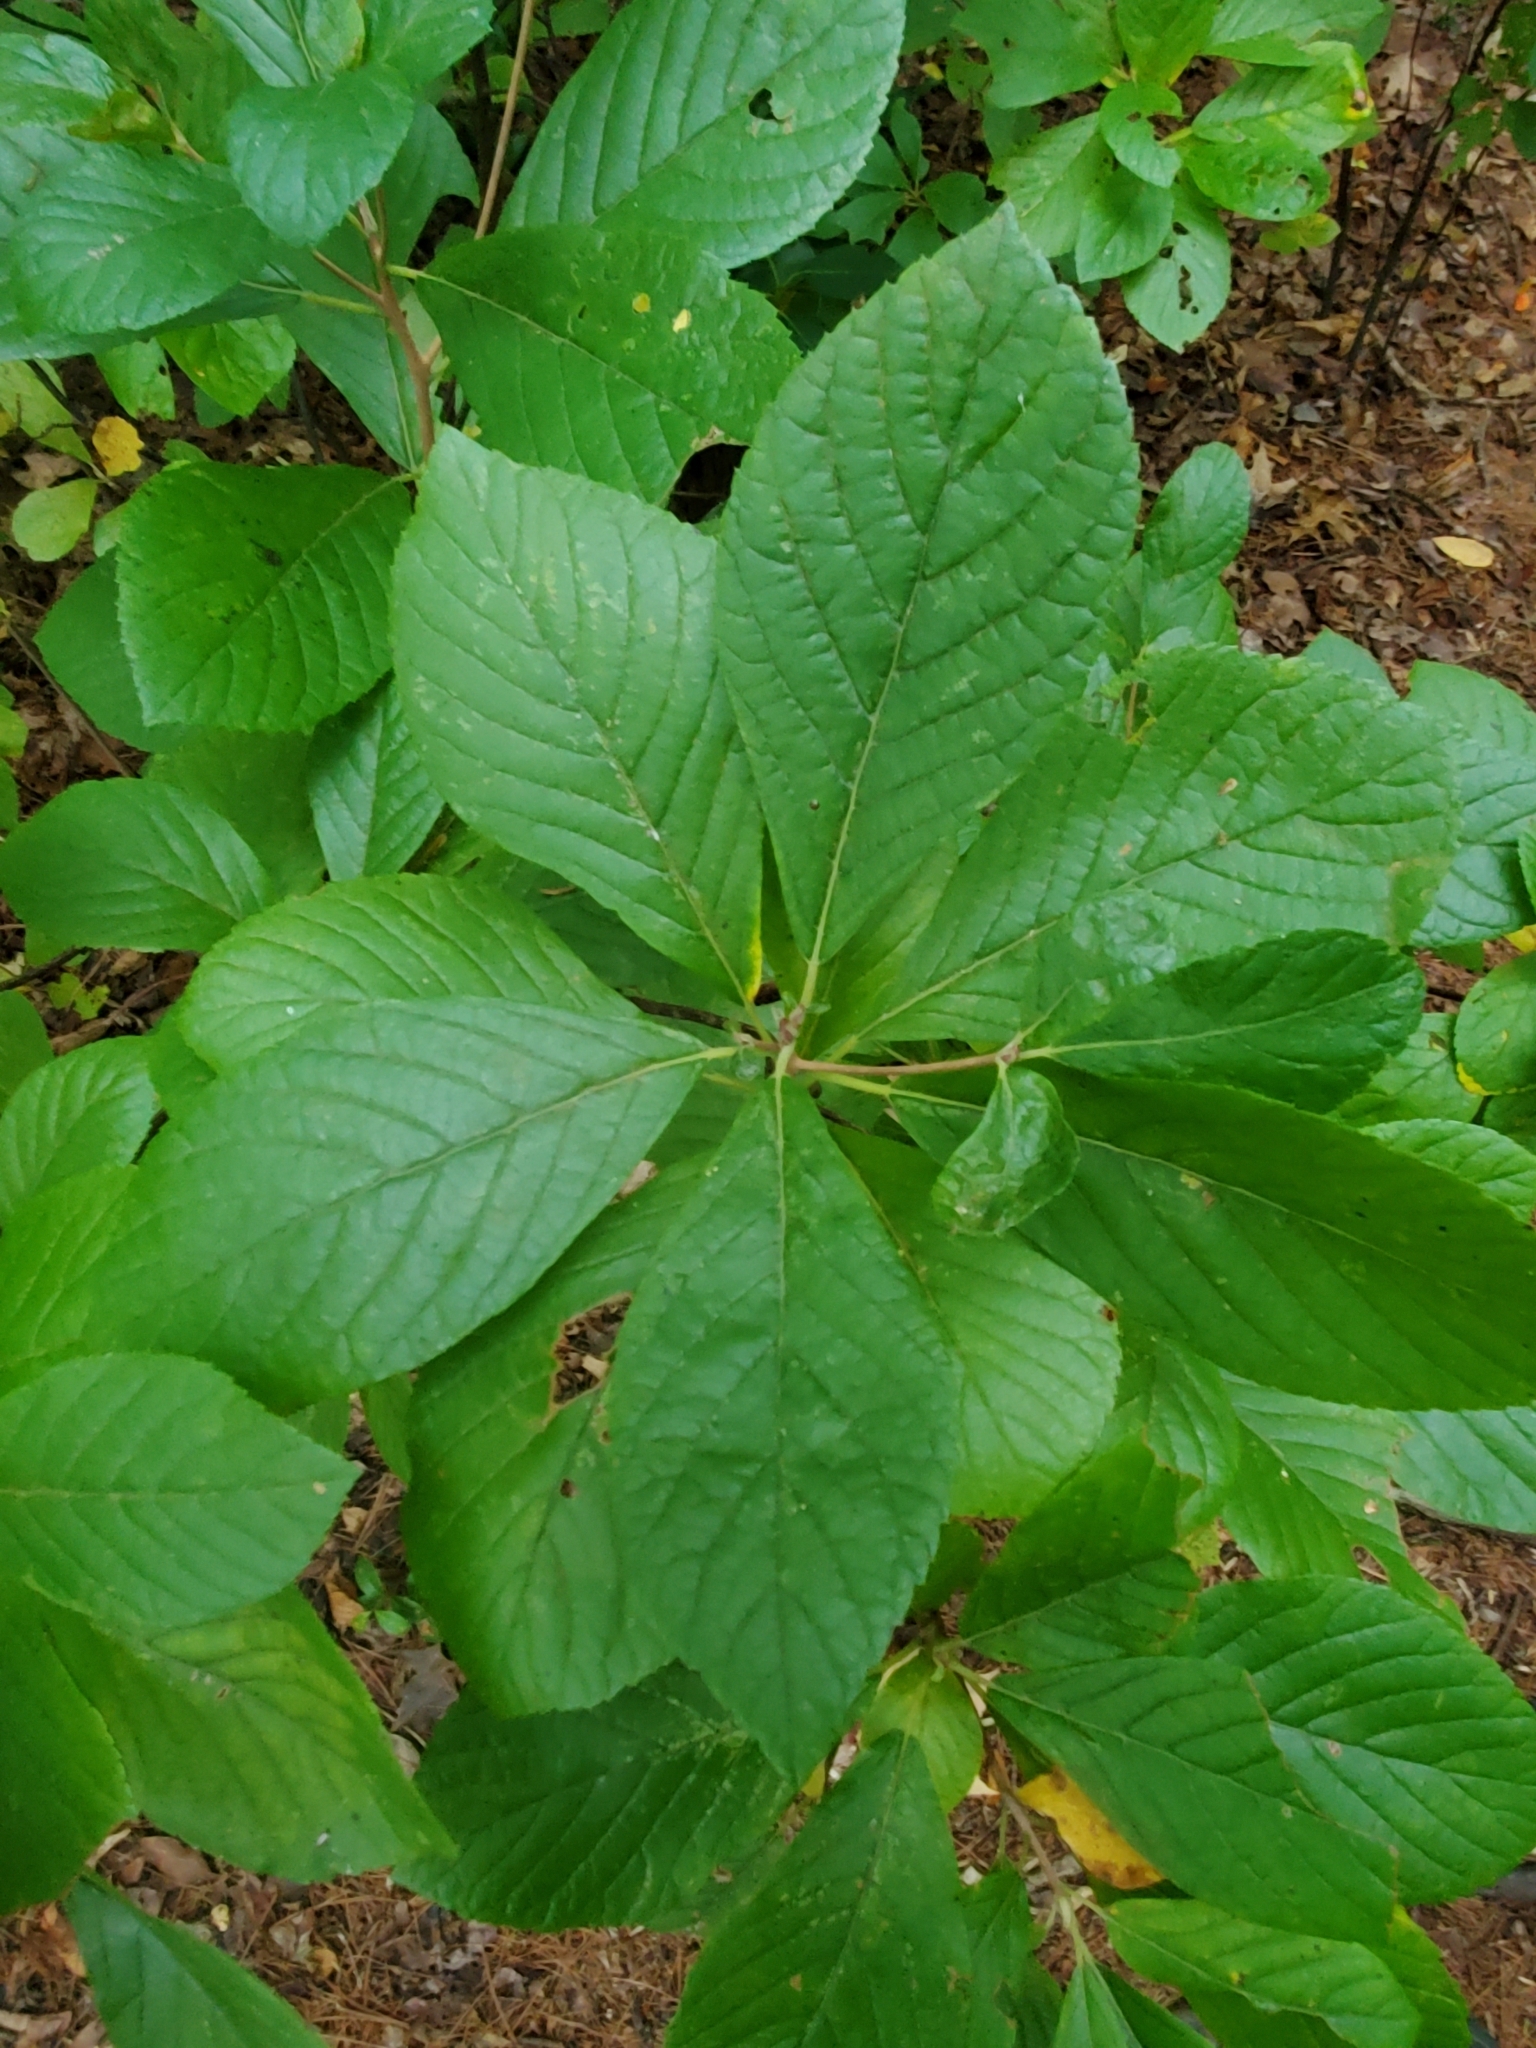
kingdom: Plantae
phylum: Tracheophyta
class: Magnoliopsida
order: Ericales
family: Clethraceae
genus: Clethra
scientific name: Clethra alnifolia
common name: Sweet pepperbush
